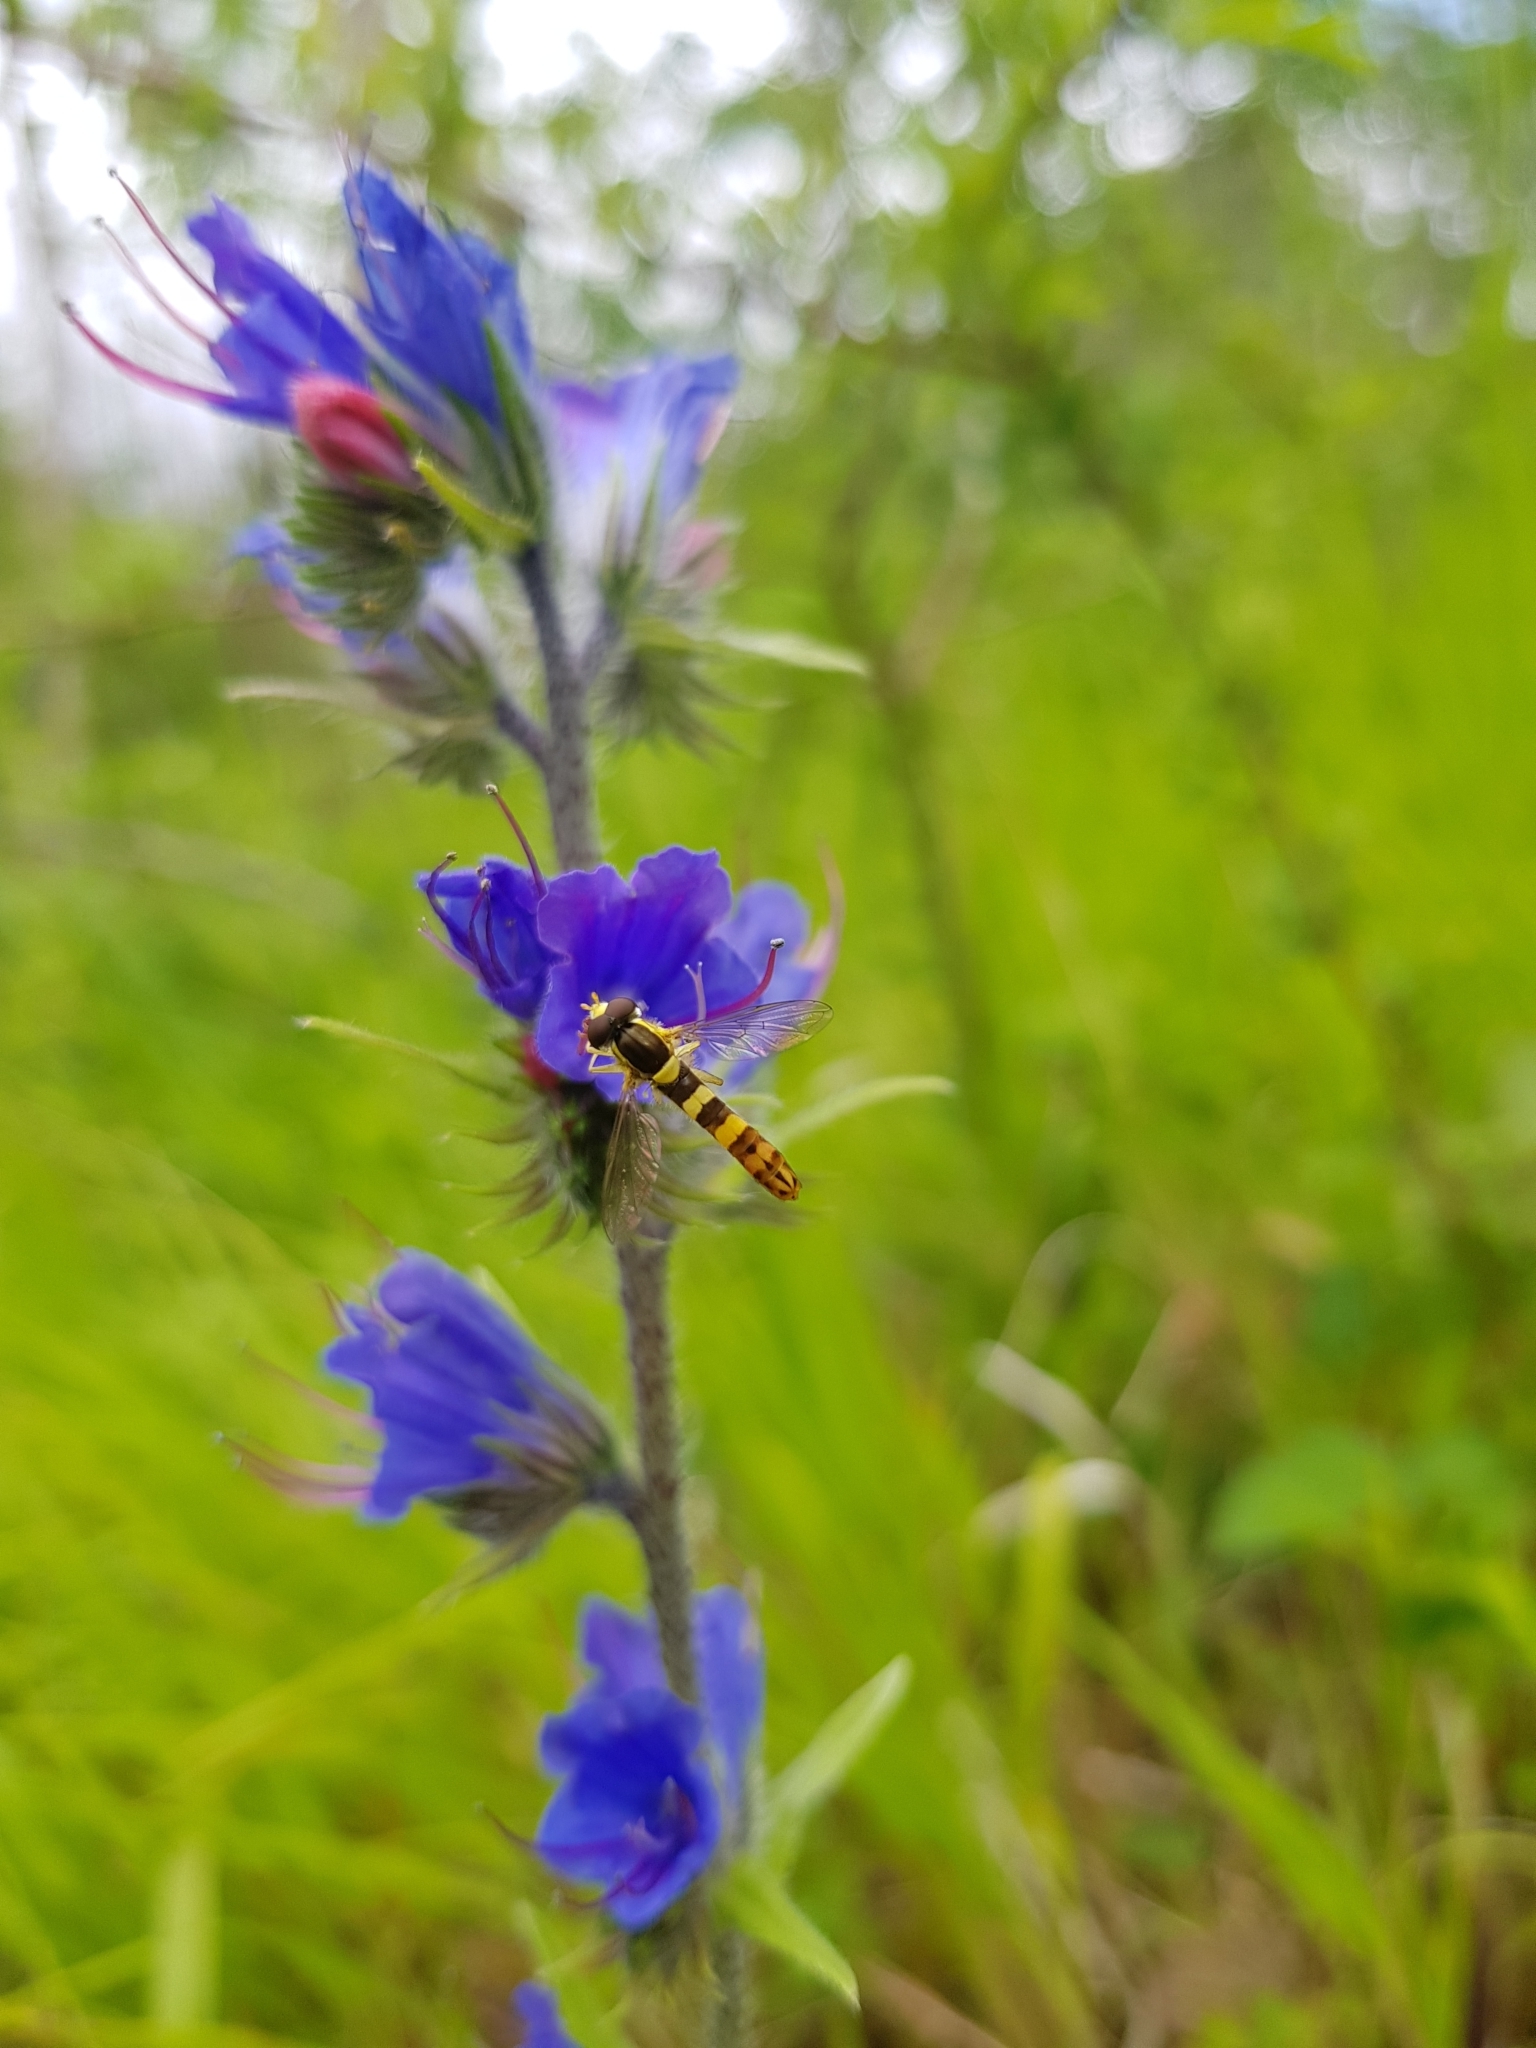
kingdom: Animalia
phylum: Arthropoda
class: Insecta
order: Diptera
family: Syrphidae
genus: Sphaerophoria
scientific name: Sphaerophoria scripta
